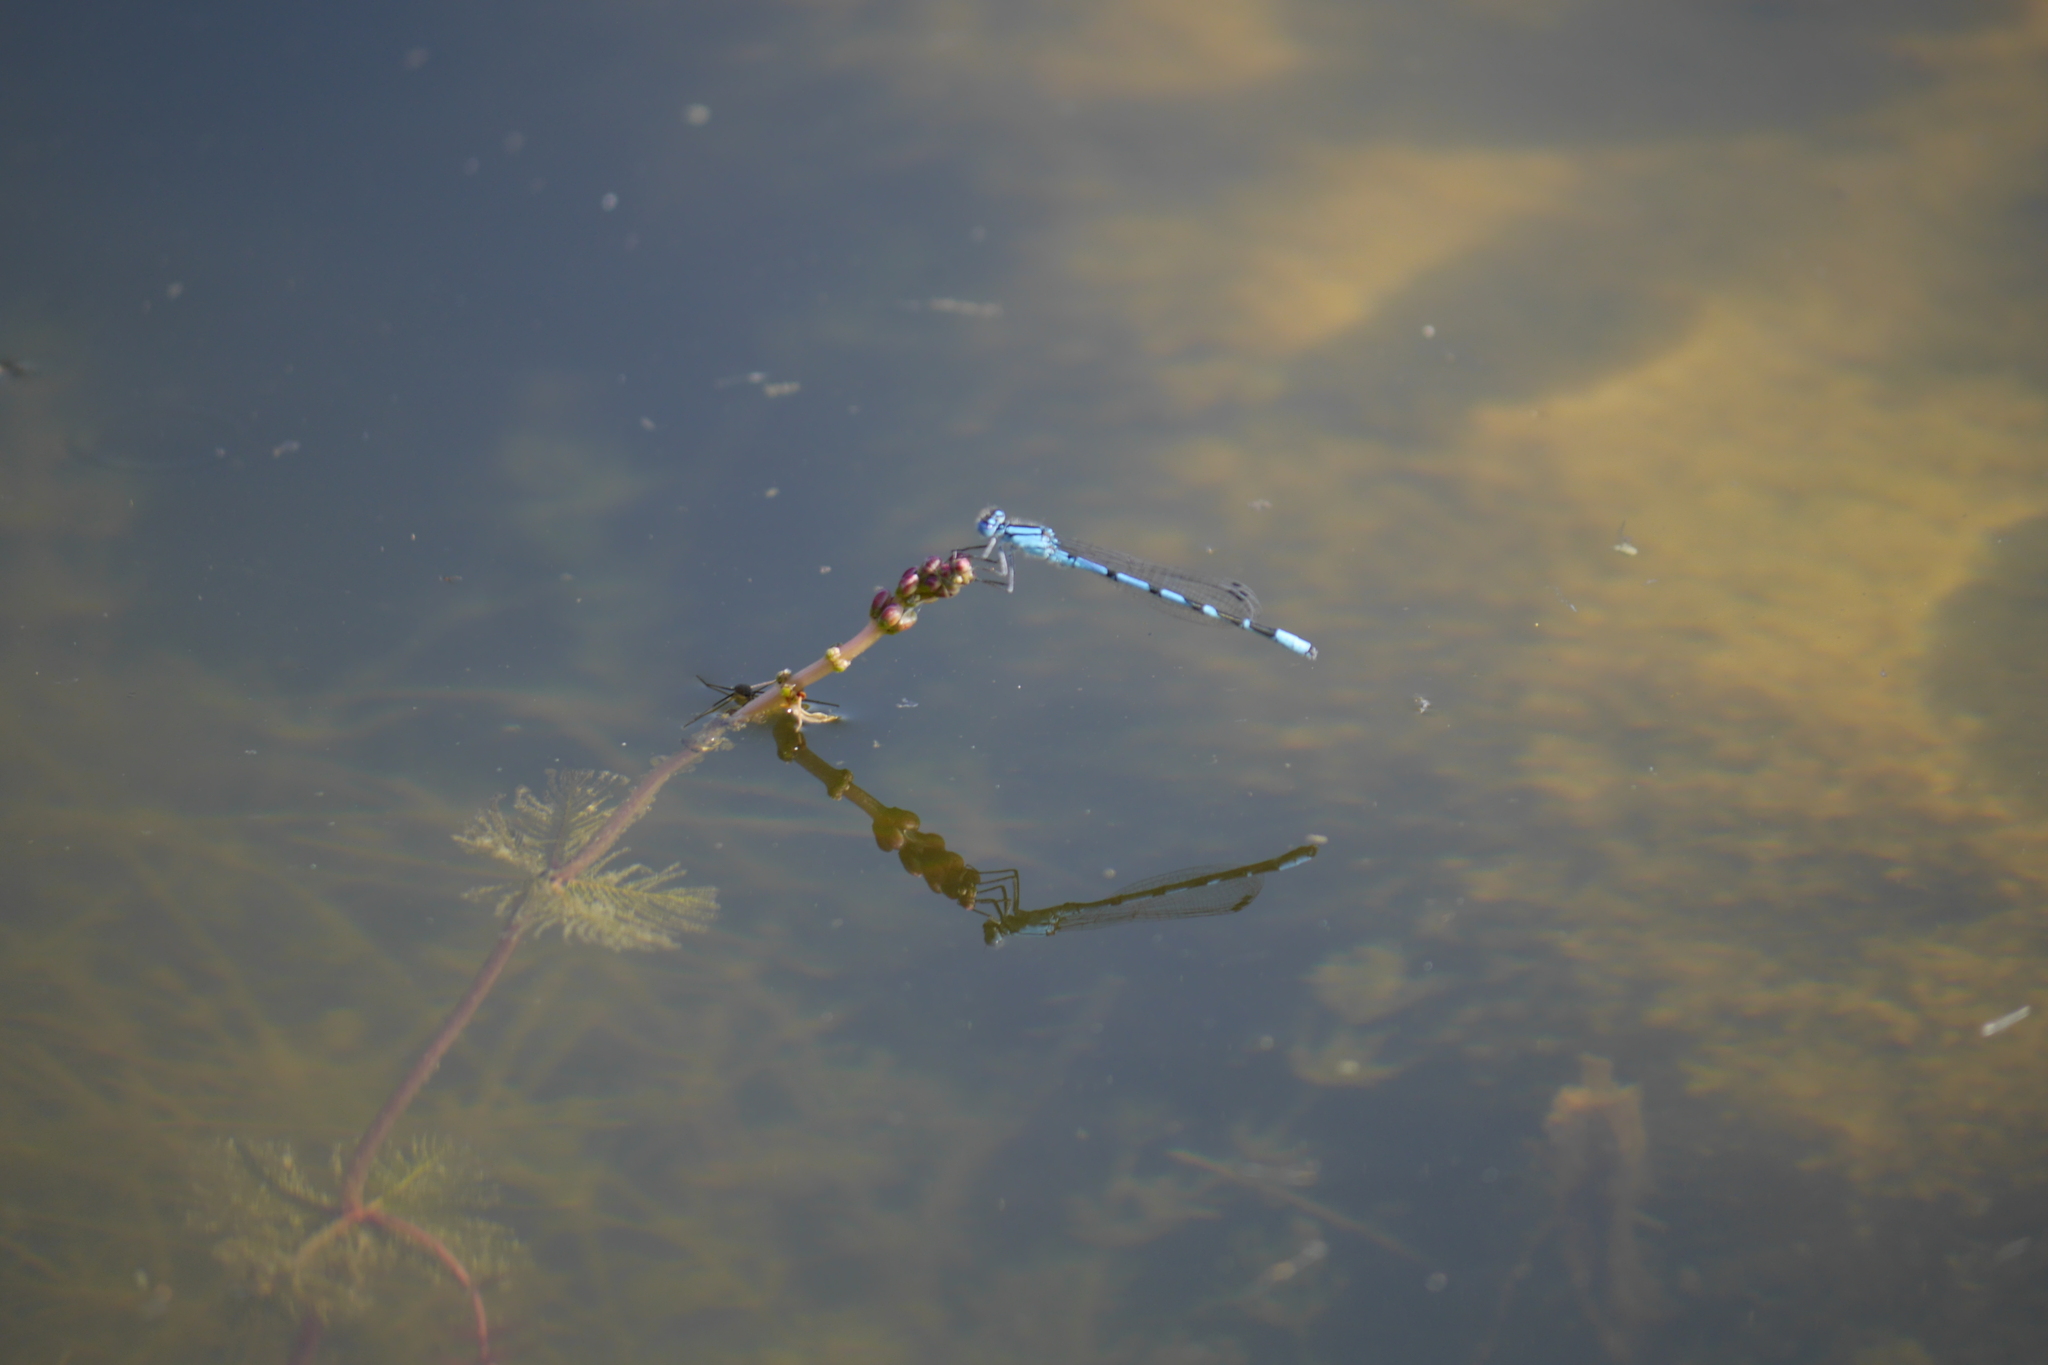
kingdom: Animalia
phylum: Arthropoda
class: Insecta
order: Odonata
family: Coenagrionidae
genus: Enallagma
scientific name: Enallagma cyathigerum
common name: Common blue damselfly
